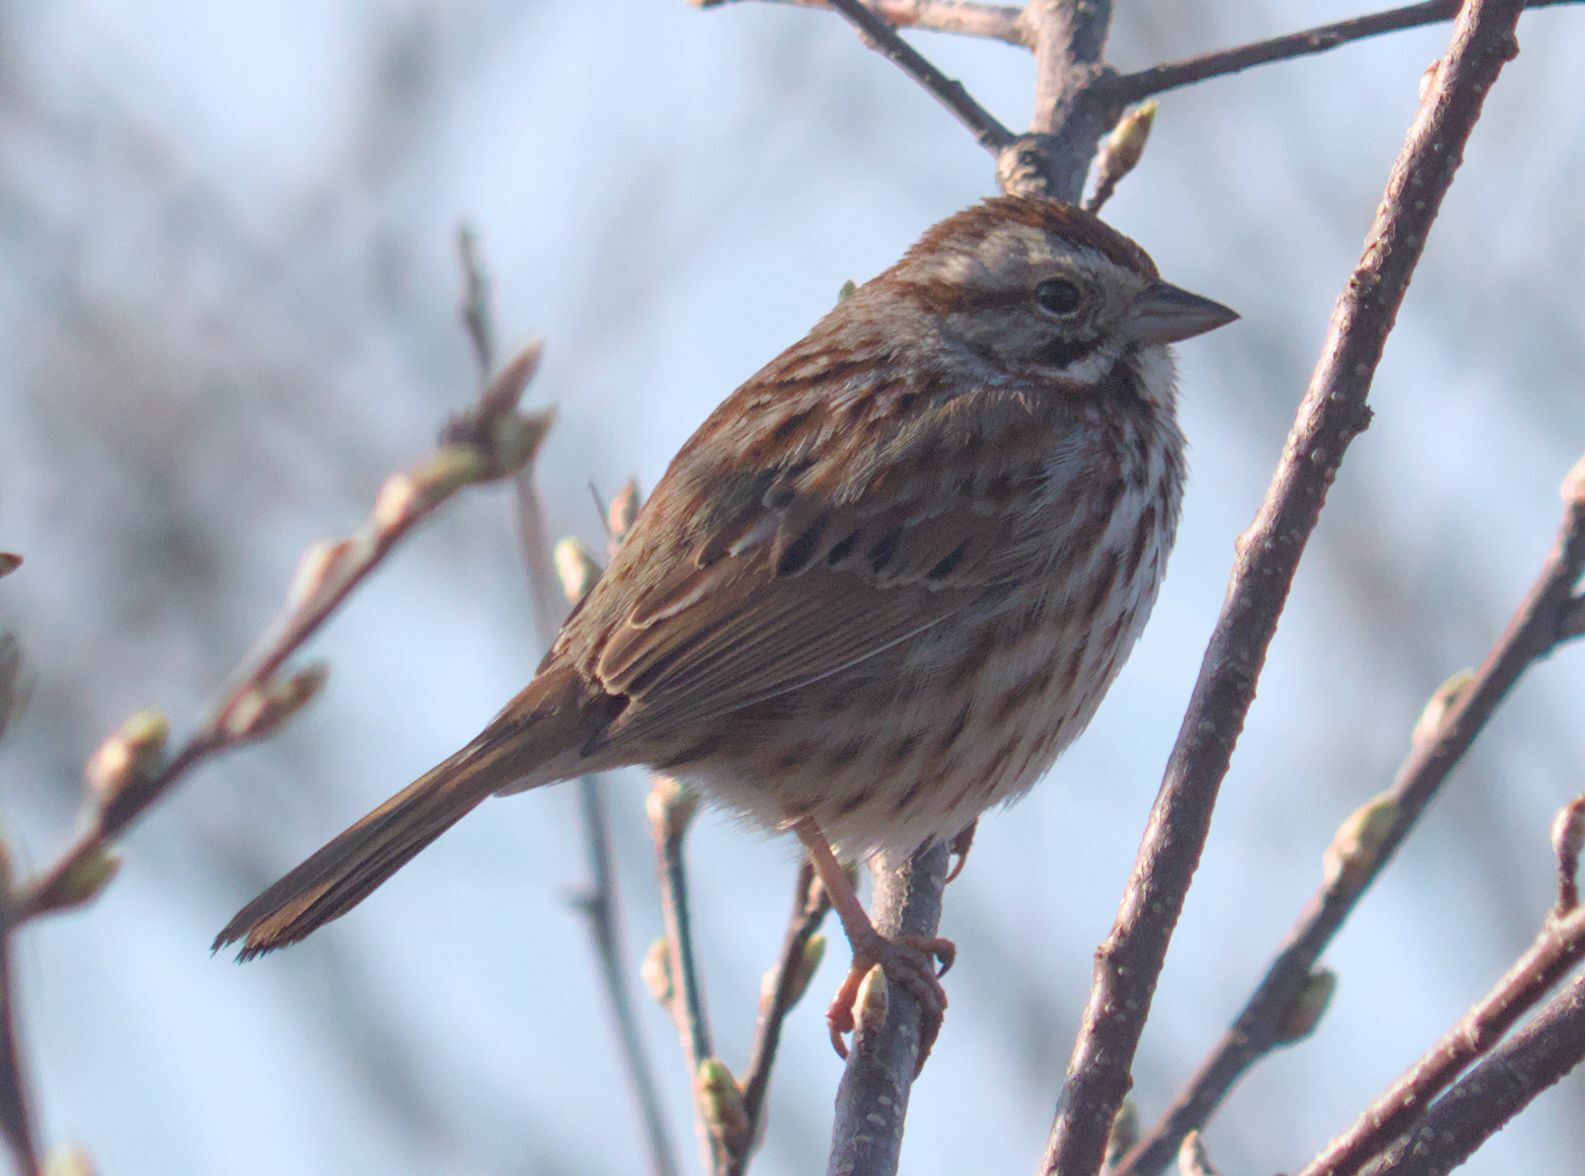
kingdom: Animalia
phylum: Chordata
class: Aves
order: Passeriformes
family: Passerellidae
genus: Melospiza
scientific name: Melospiza melodia
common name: Song sparrow
